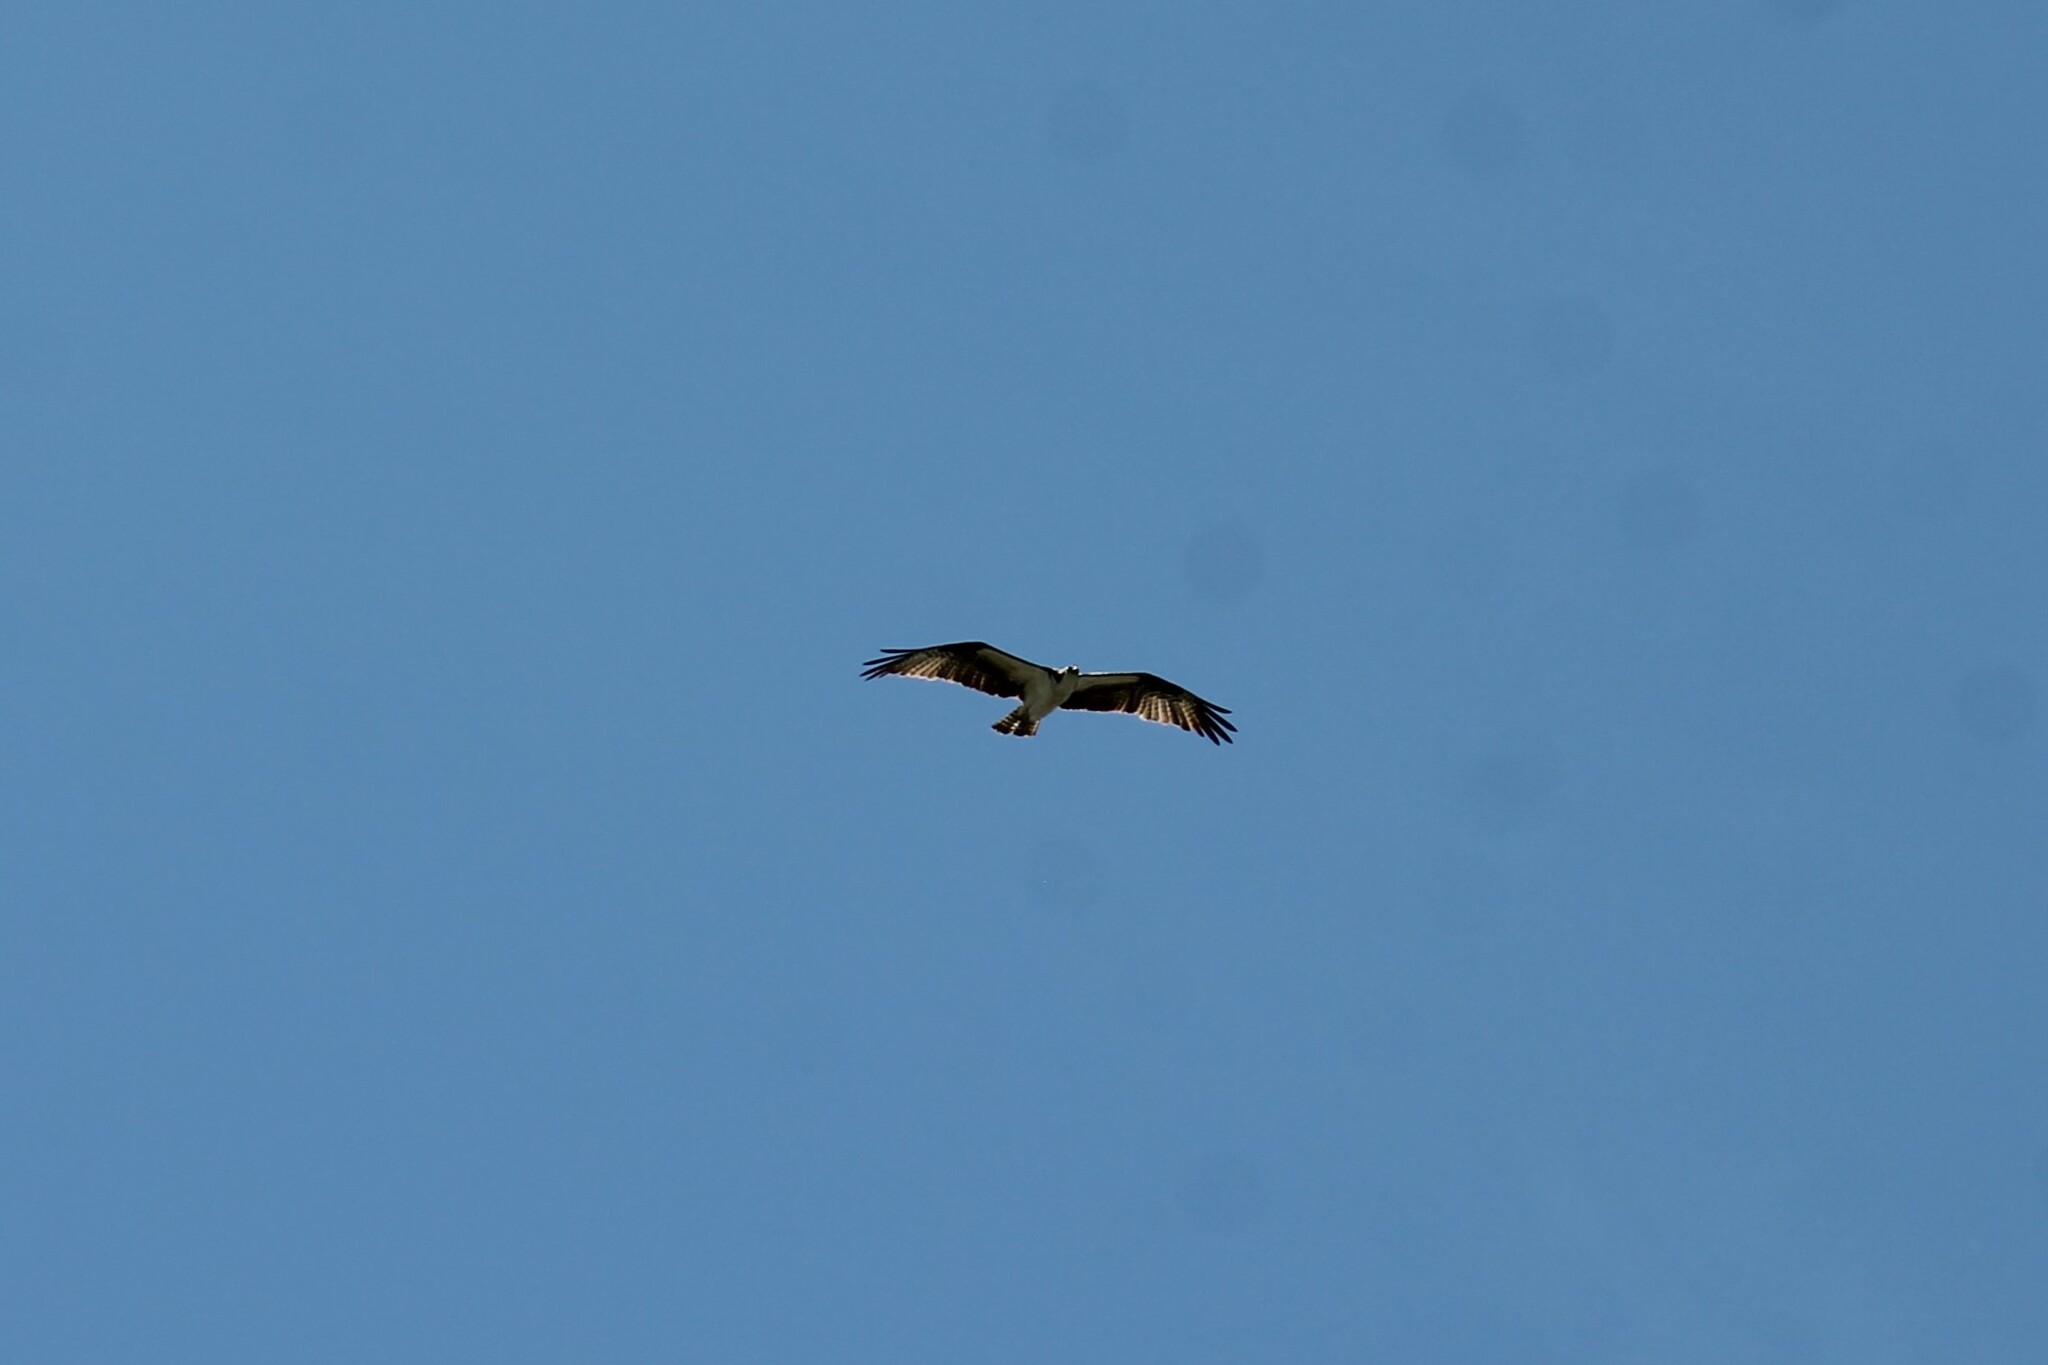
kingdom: Animalia
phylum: Chordata
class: Aves
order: Accipitriformes
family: Pandionidae
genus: Pandion
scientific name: Pandion haliaetus
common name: Osprey
